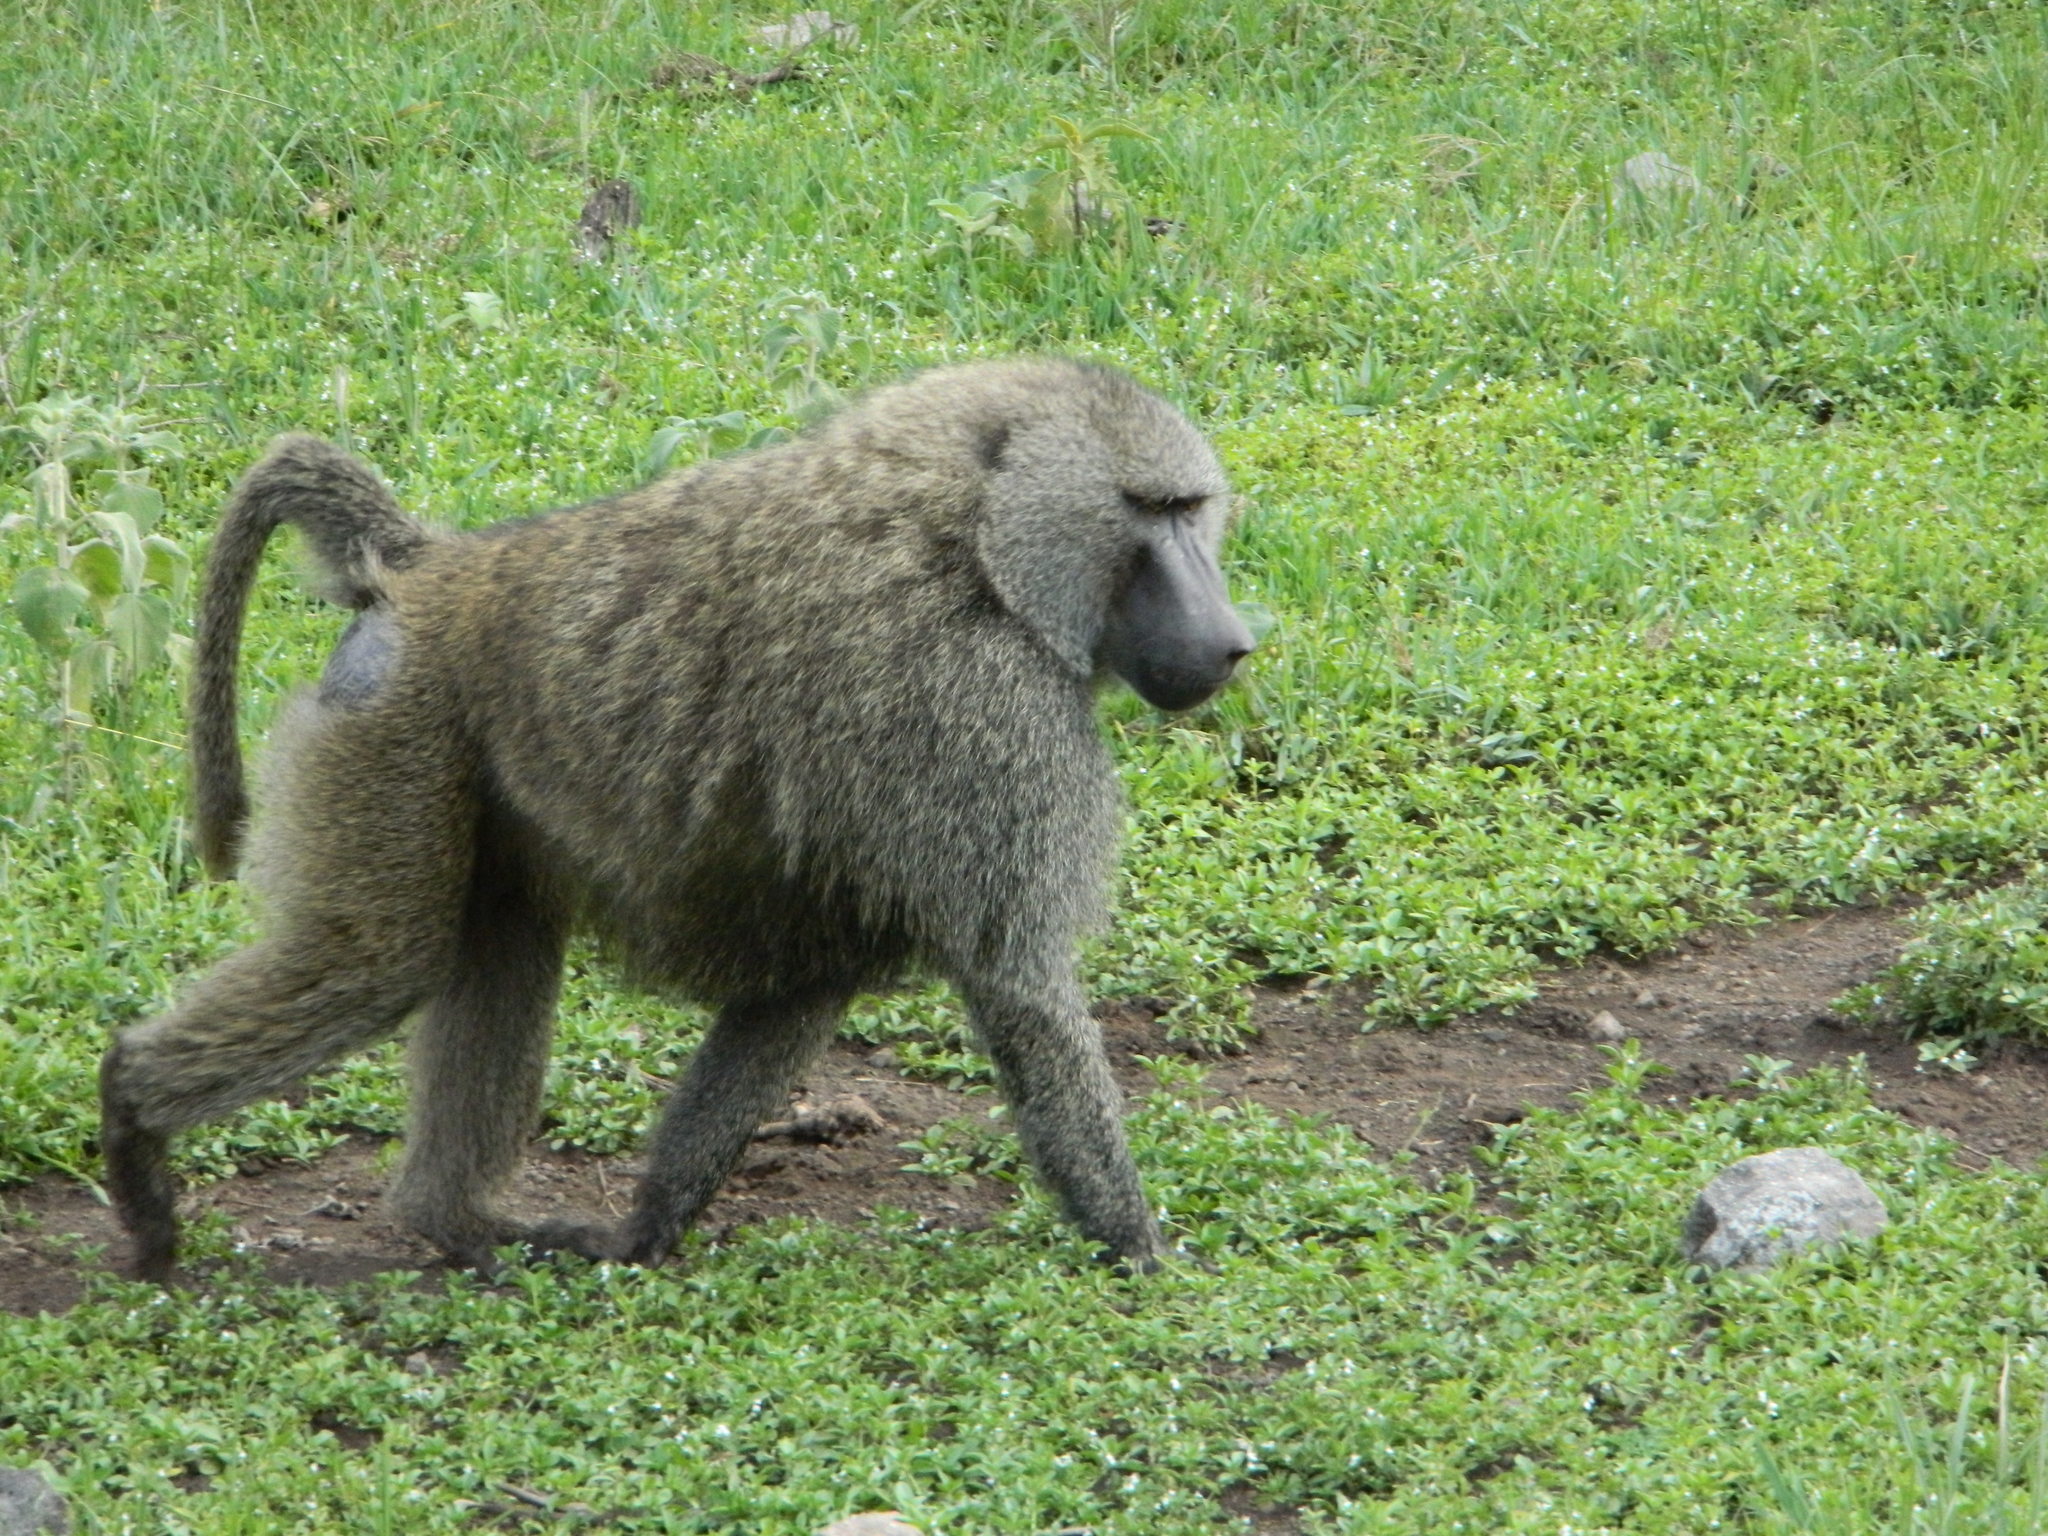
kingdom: Animalia
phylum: Chordata
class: Mammalia
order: Primates
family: Cercopithecidae
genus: Papio
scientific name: Papio anubis
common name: Olive baboon
